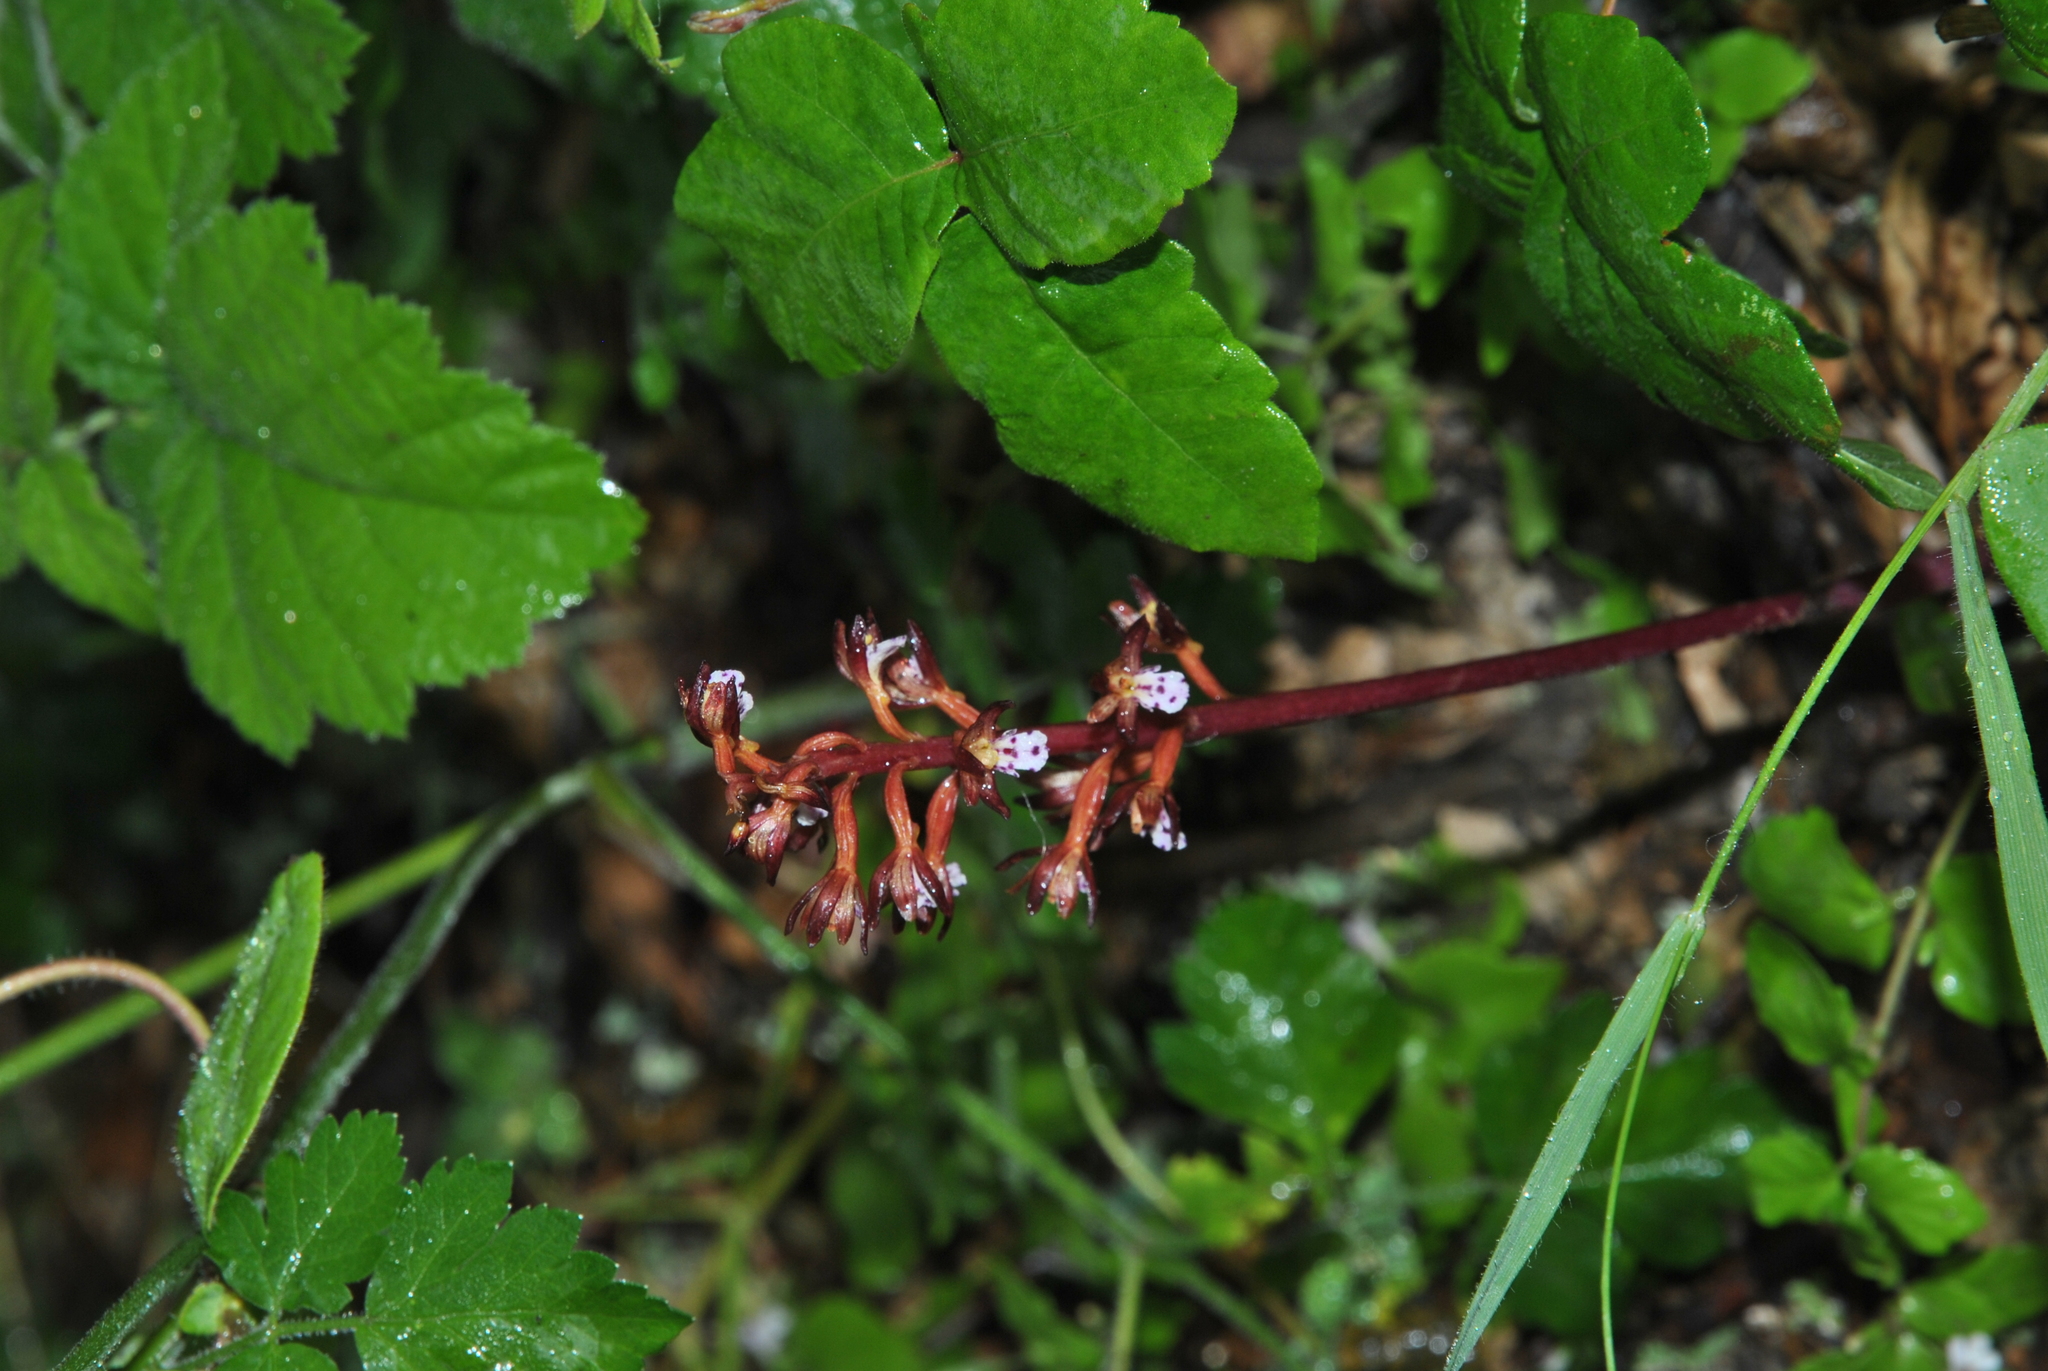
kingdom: Plantae
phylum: Tracheophyta
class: Liliopsida
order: Asparagales
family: Orchidaceae
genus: Corallorhiza
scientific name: Corallorhiza maculata
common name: Spotted coralroot
